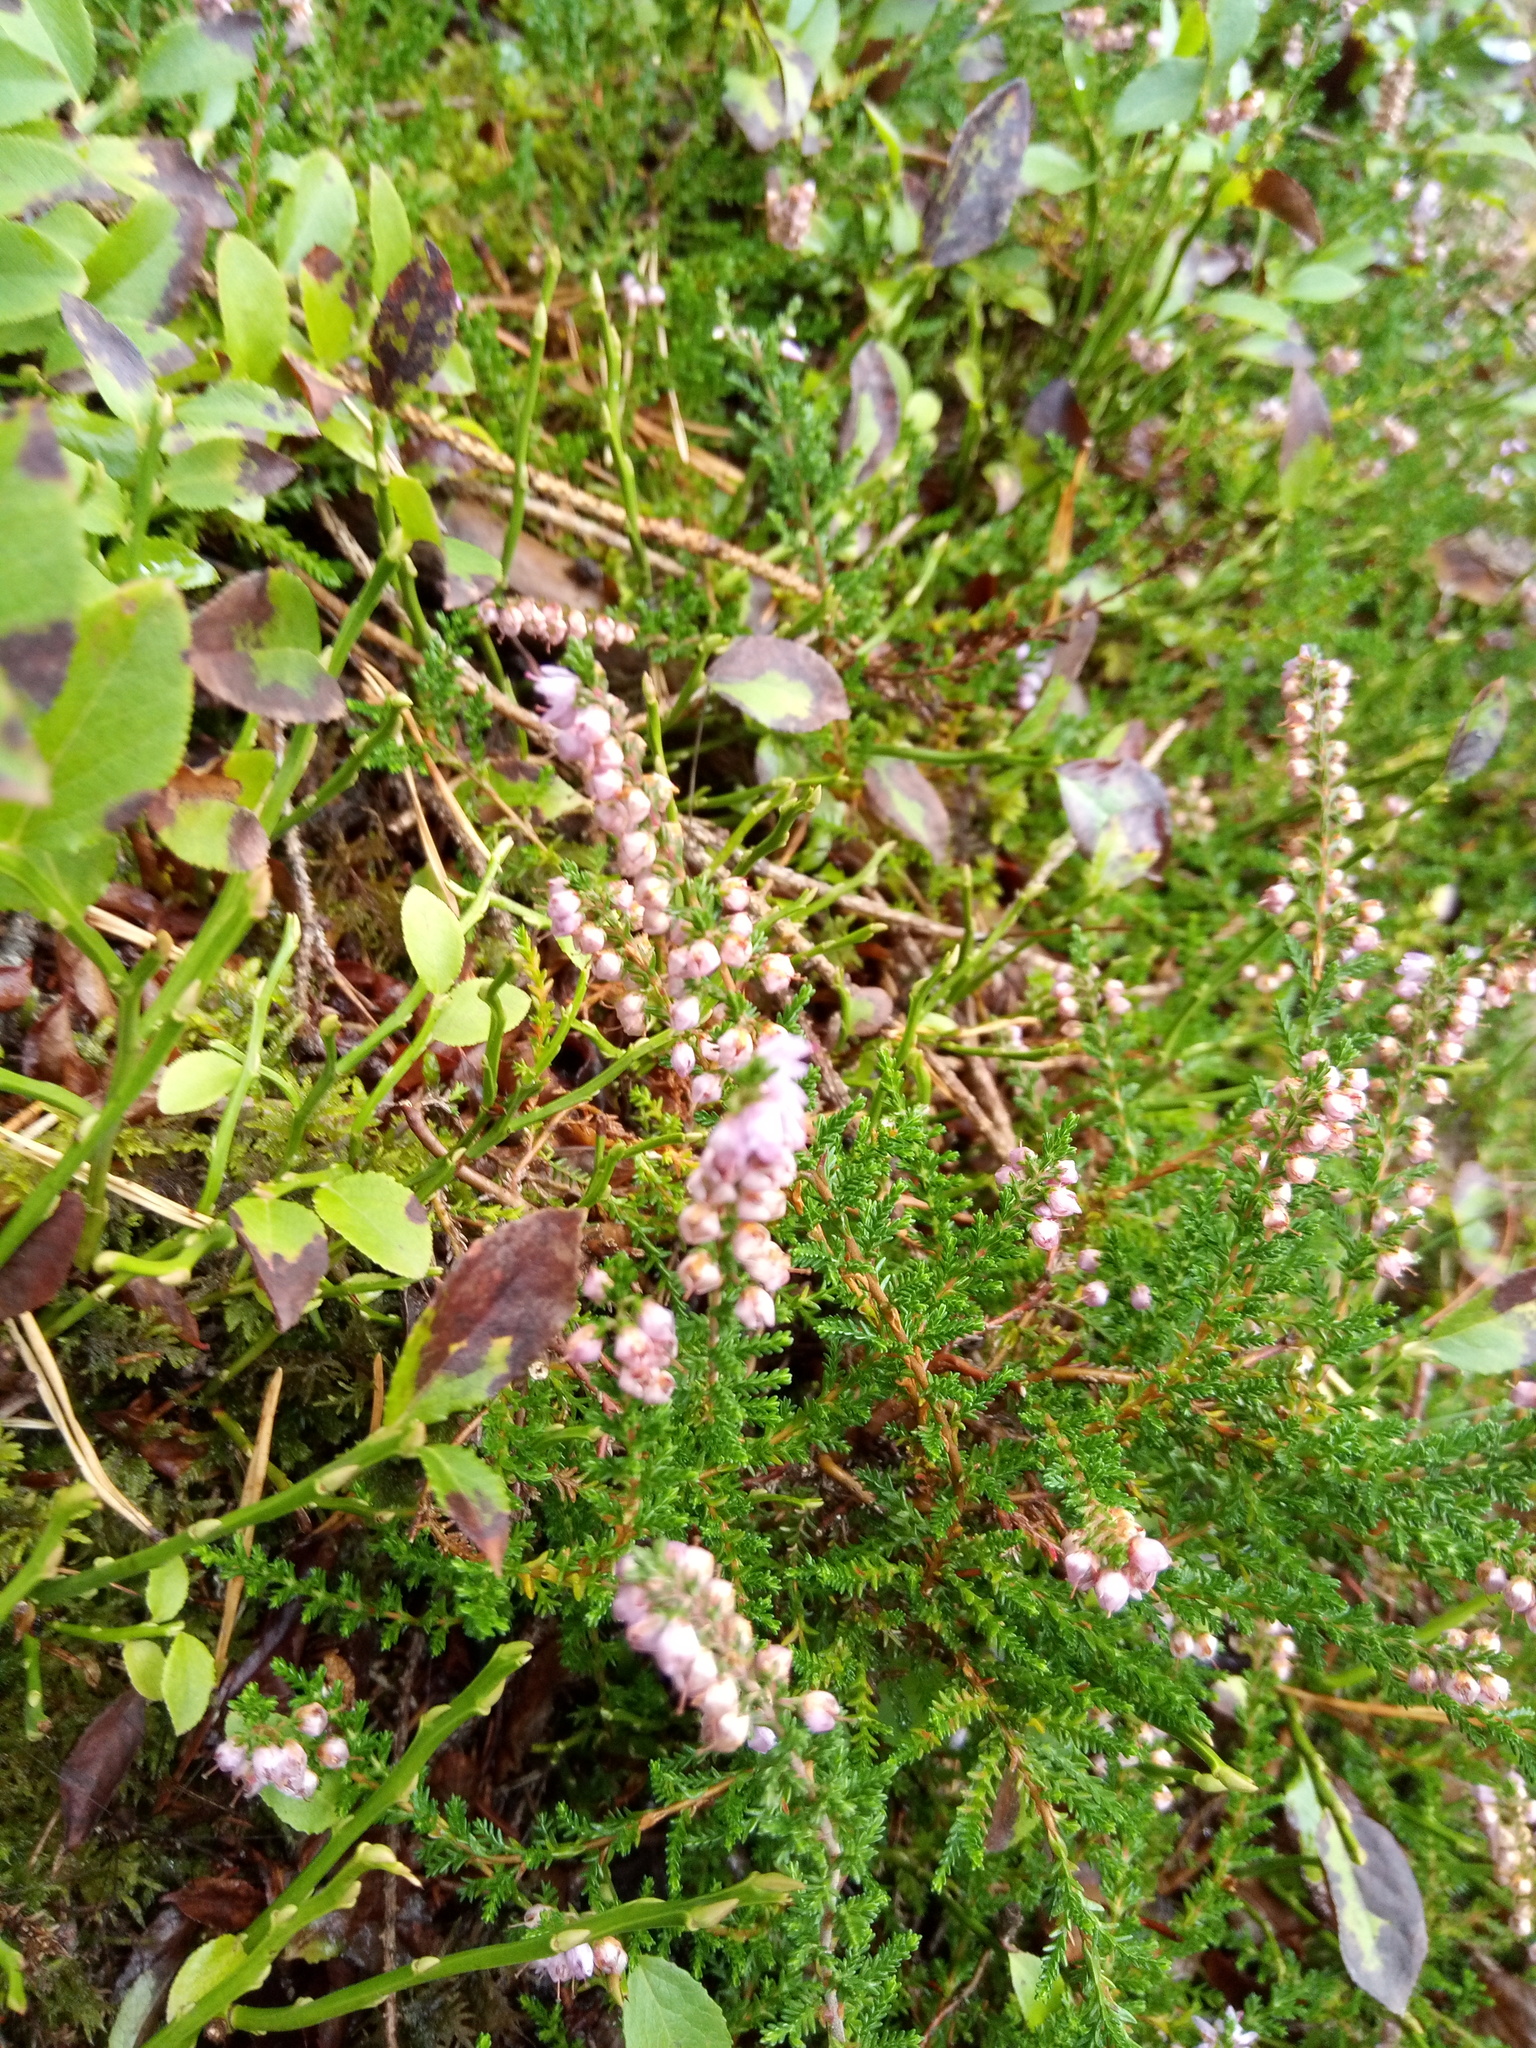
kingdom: Plantae
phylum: Tracheophyta
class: Magnoliopsida
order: Ericales
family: Ericaceae
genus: Calluna
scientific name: Calluna vulgaris
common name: Heather
